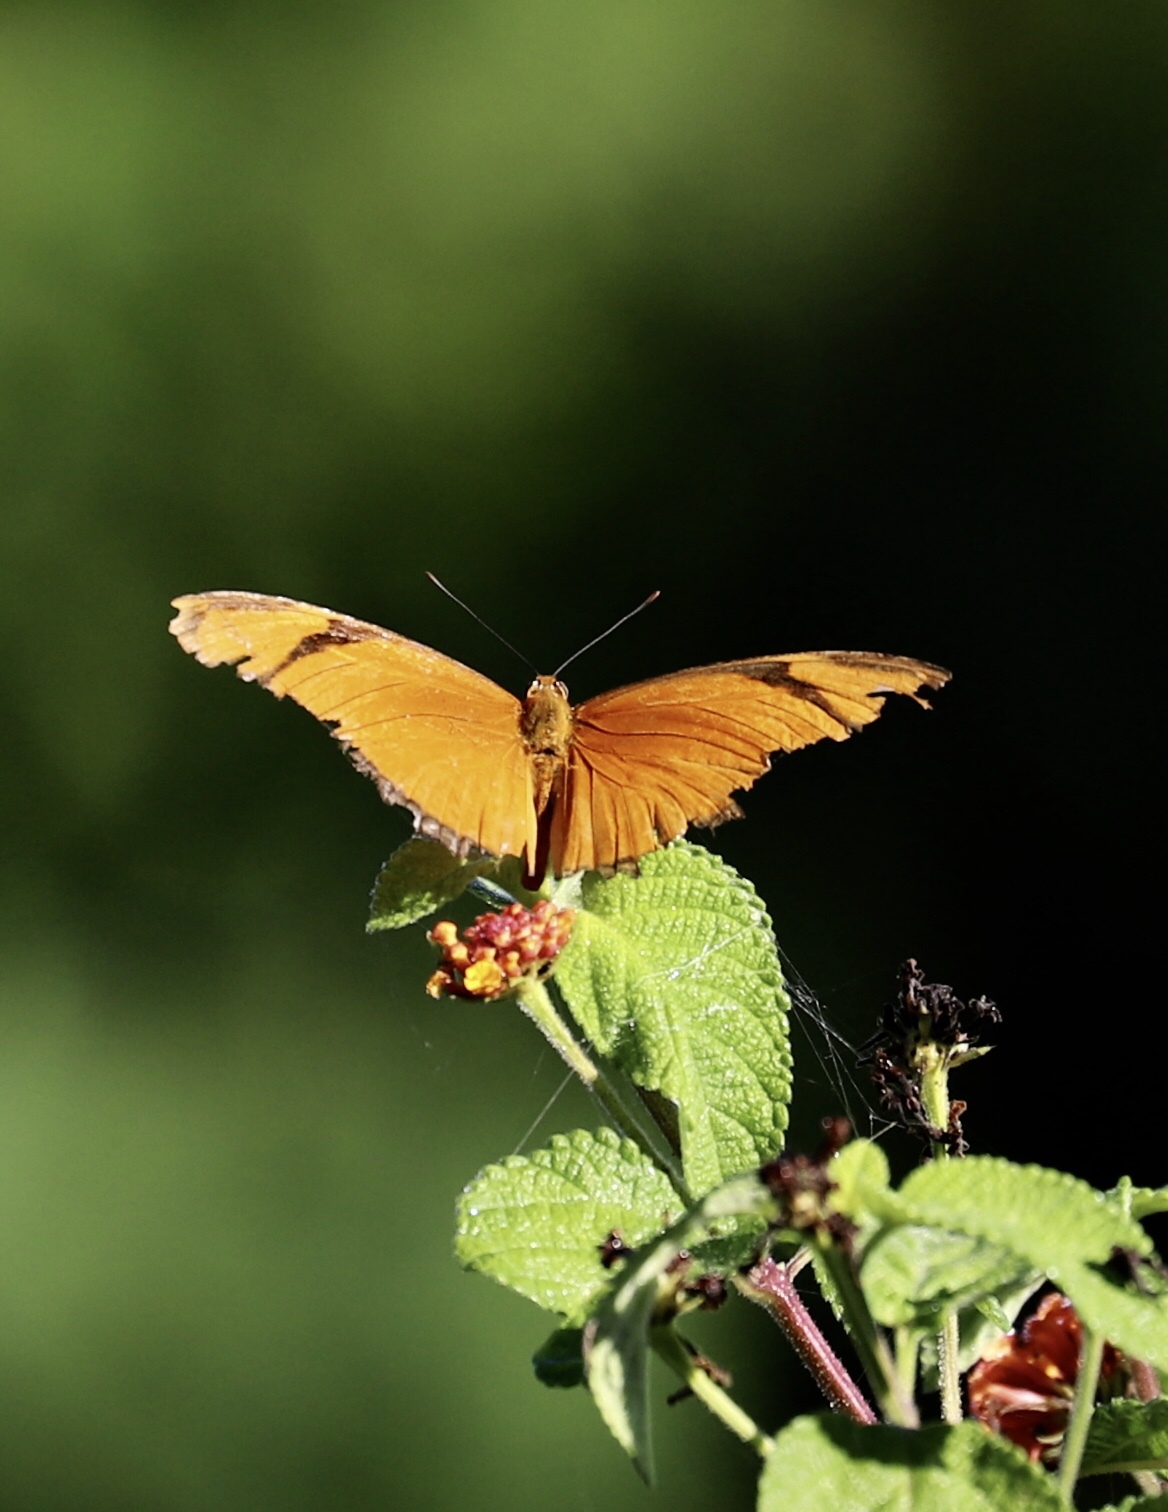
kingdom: Animalia
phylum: Arthropoda
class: Insecta
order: Lepidoptera
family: Nymphalidae
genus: Dryas
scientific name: Dryas iulia
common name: Flambeau
